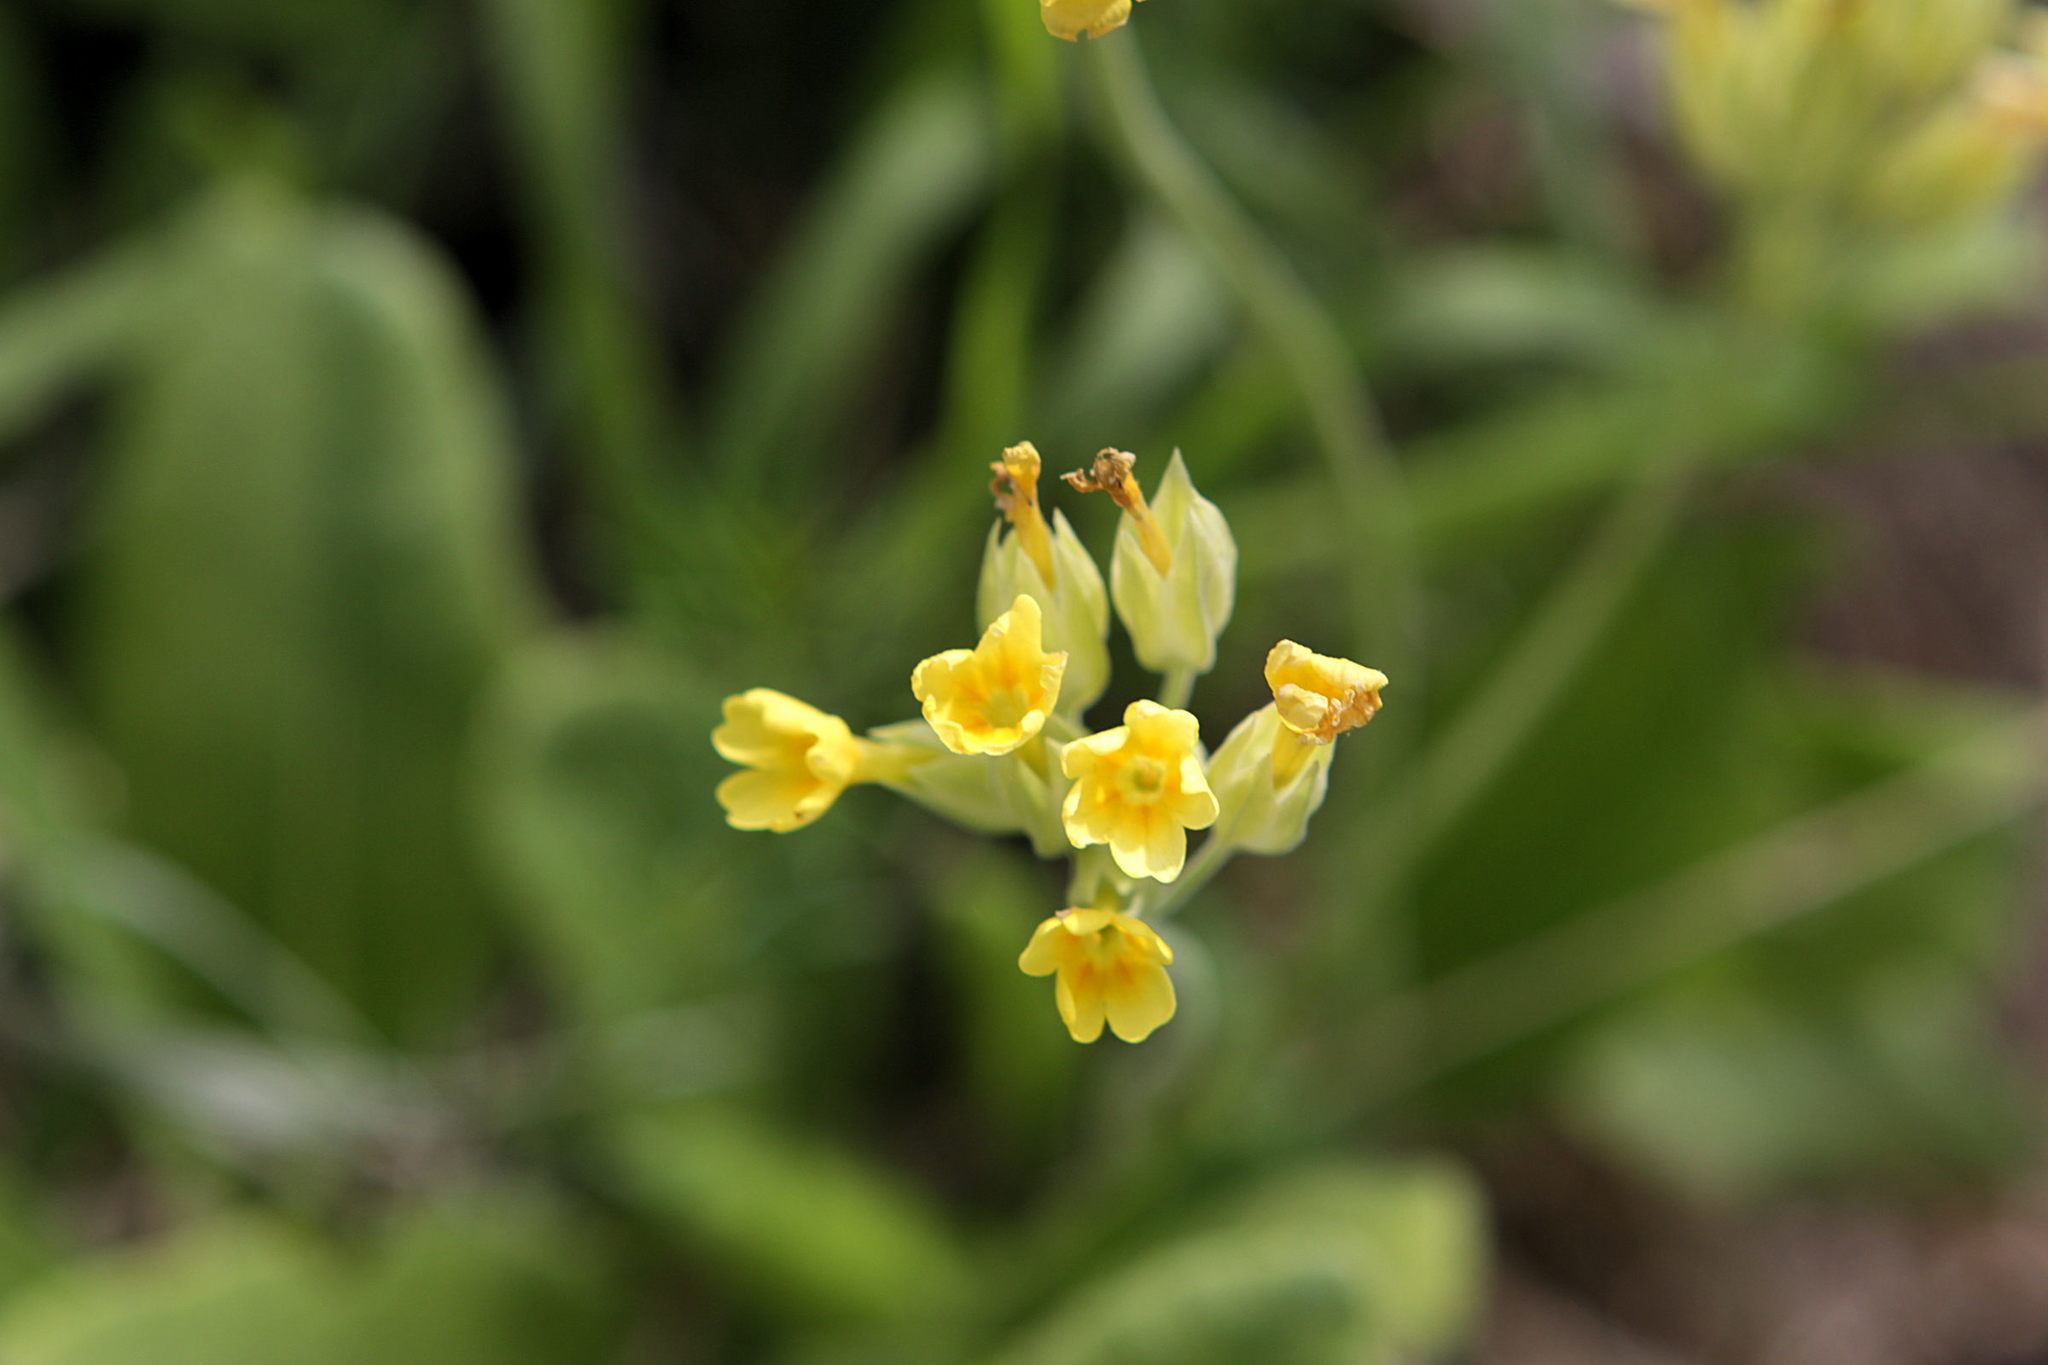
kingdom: Plantae
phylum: Tracheophyta
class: Magnoliopsida
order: Ericales
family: Primulaceae
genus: Primula
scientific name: Primula veris
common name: Cowslip
